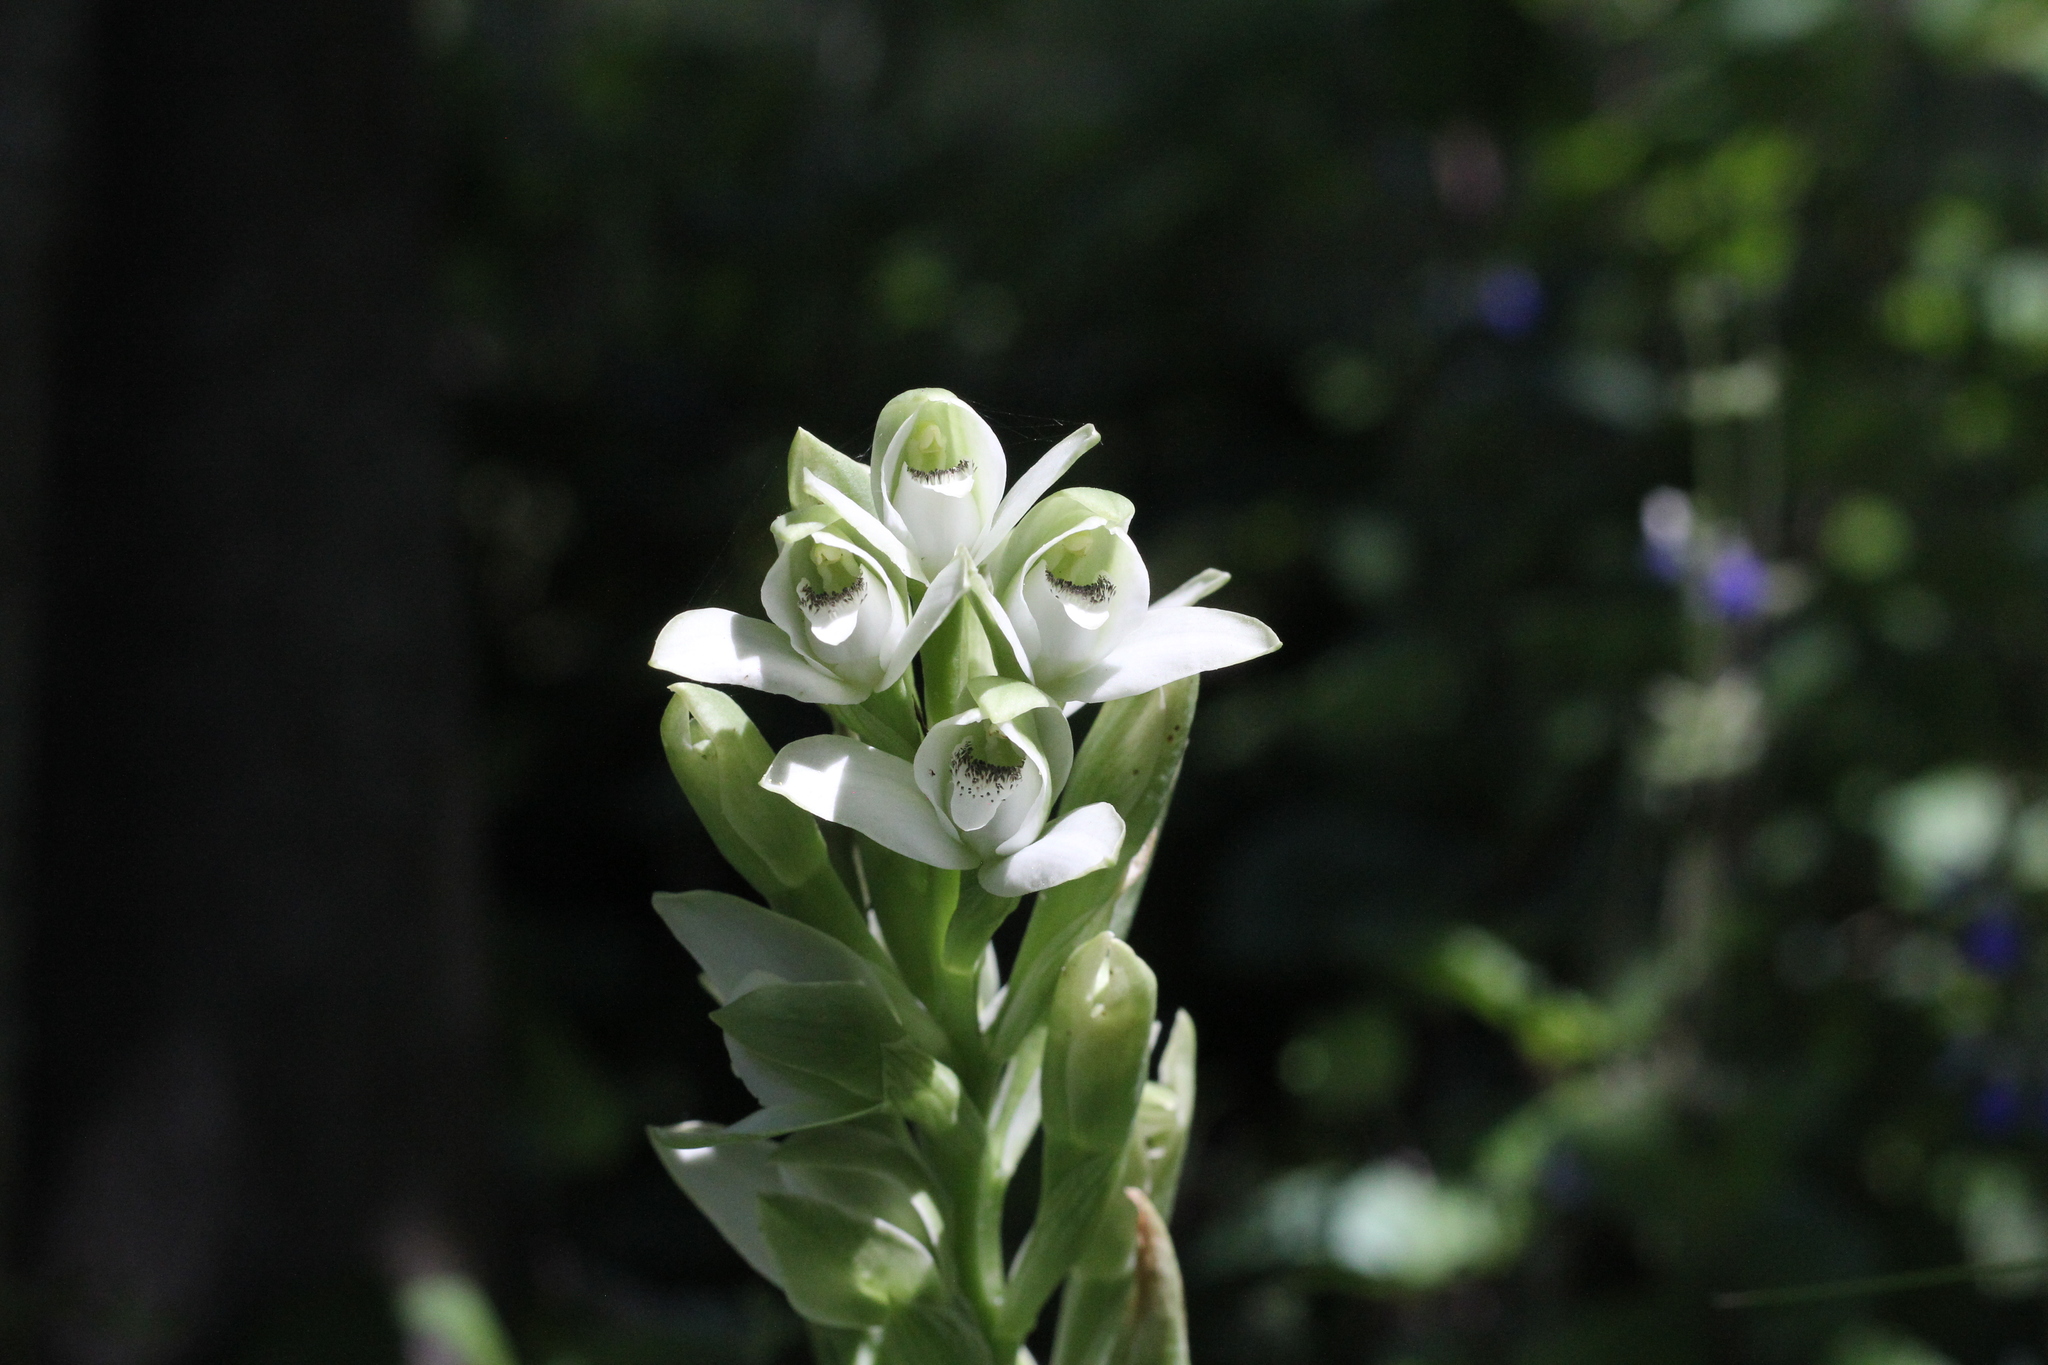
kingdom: Plantae
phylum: Tracheophyta
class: Liliopsida
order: Asparagales
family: Orchidaceae
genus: Chloraea
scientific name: Chloraea membranacea
